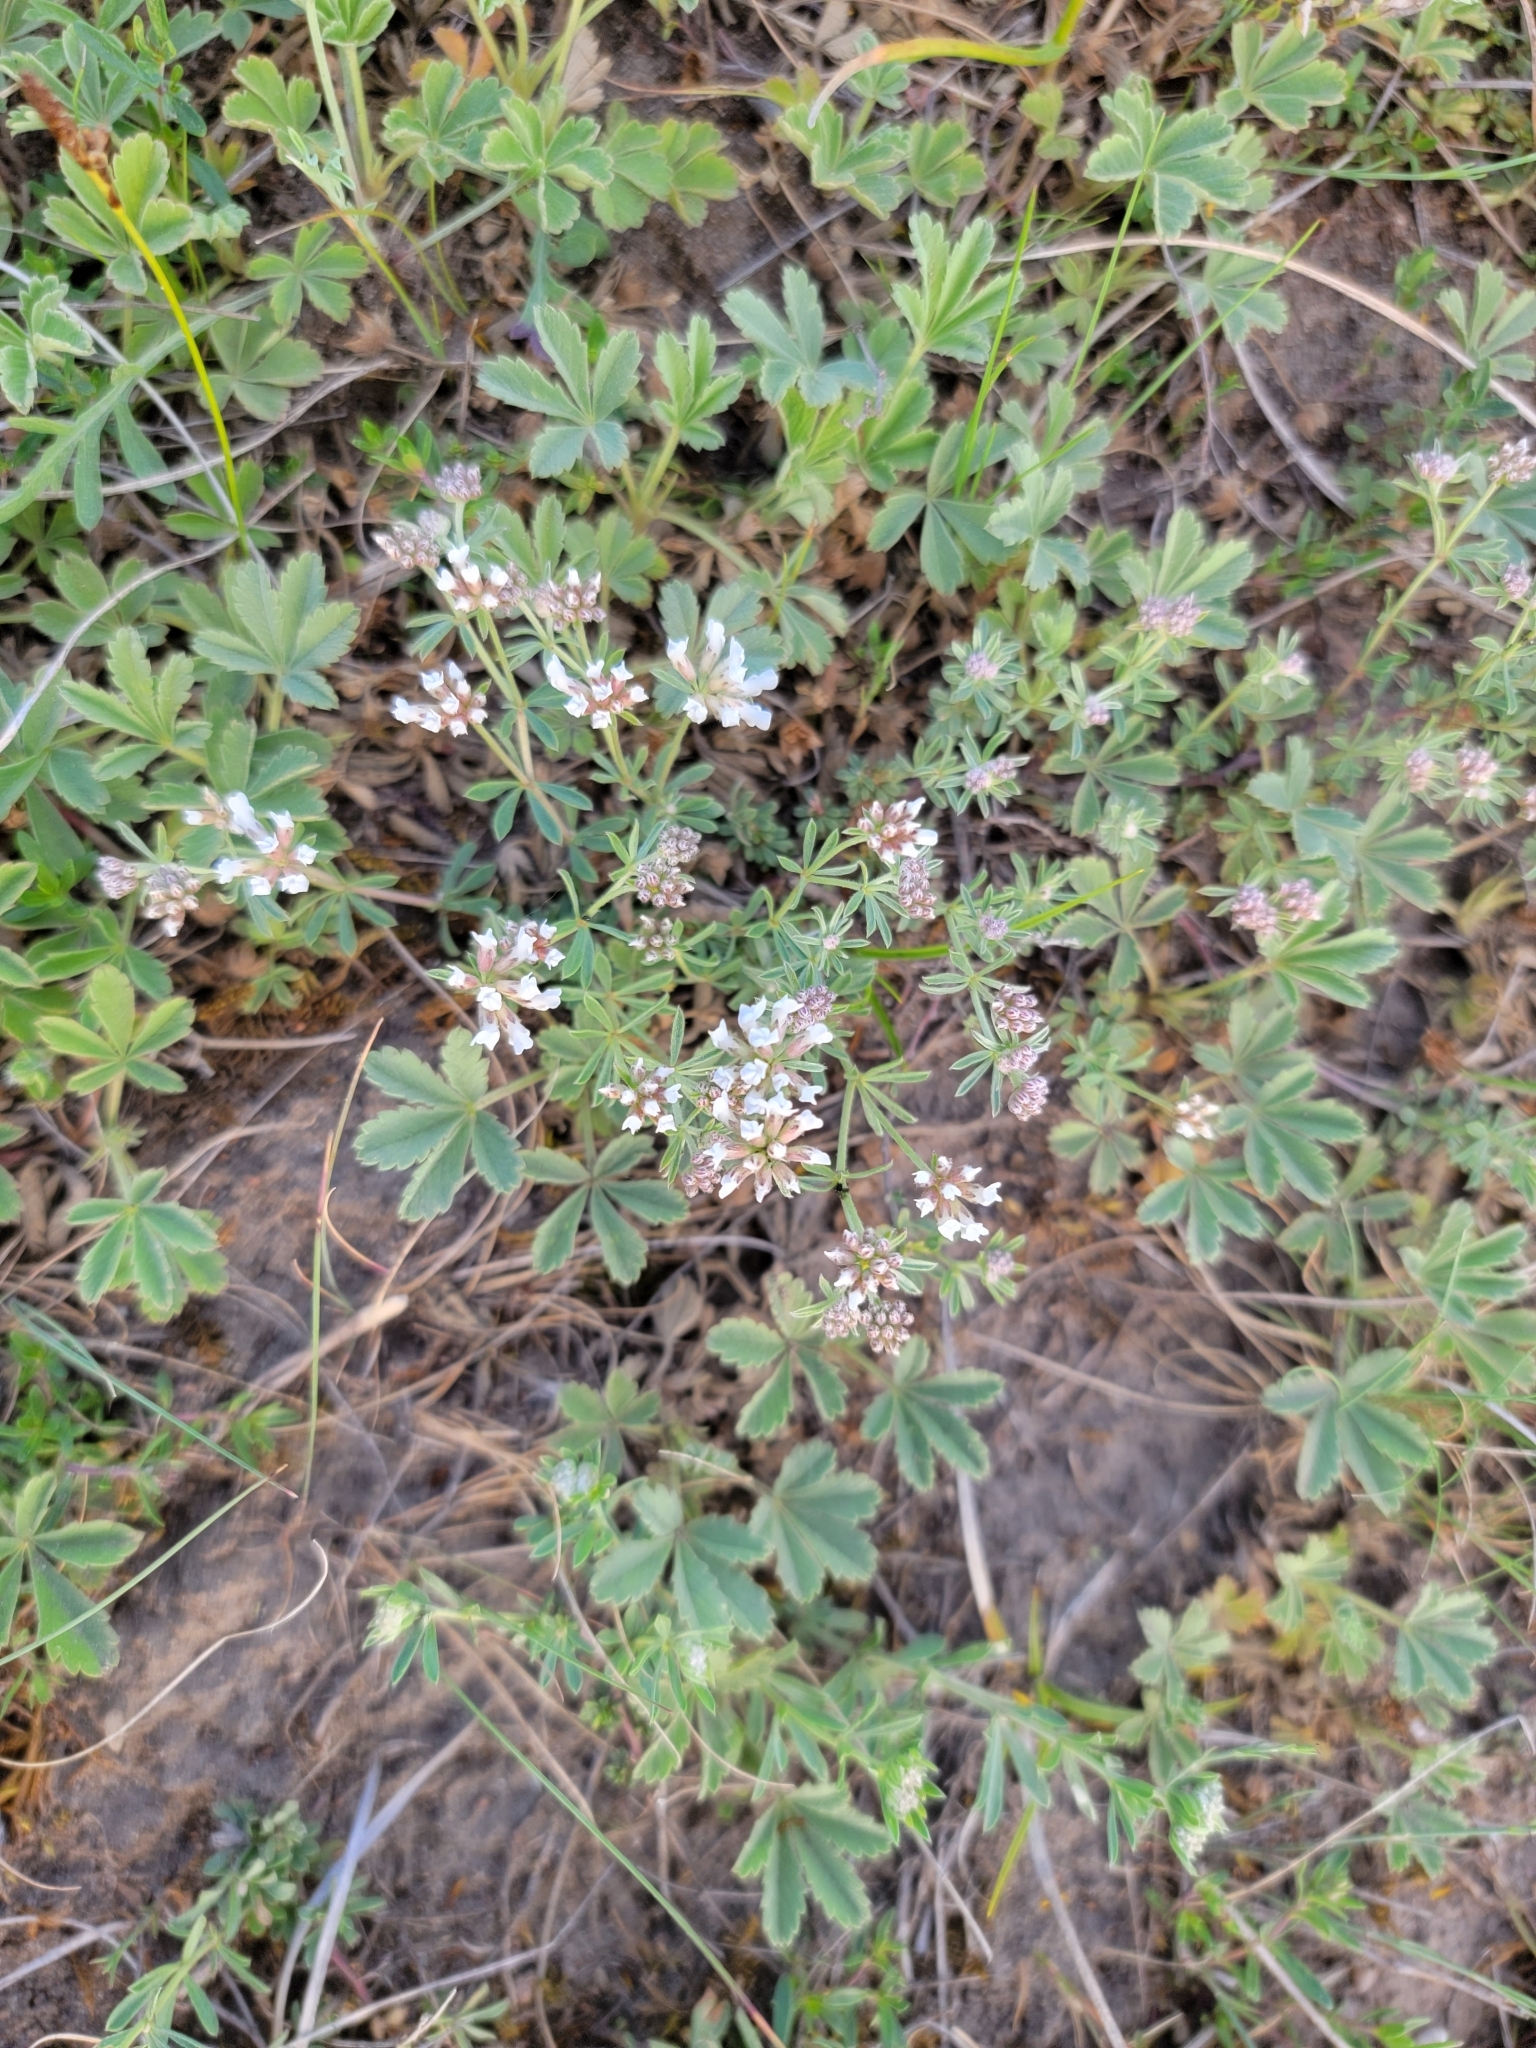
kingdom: Plantae
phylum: Tracheophyta
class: Magnoliopsida
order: Fabales
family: Fabaceae
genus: Lotus
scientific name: Lotus germanicus
